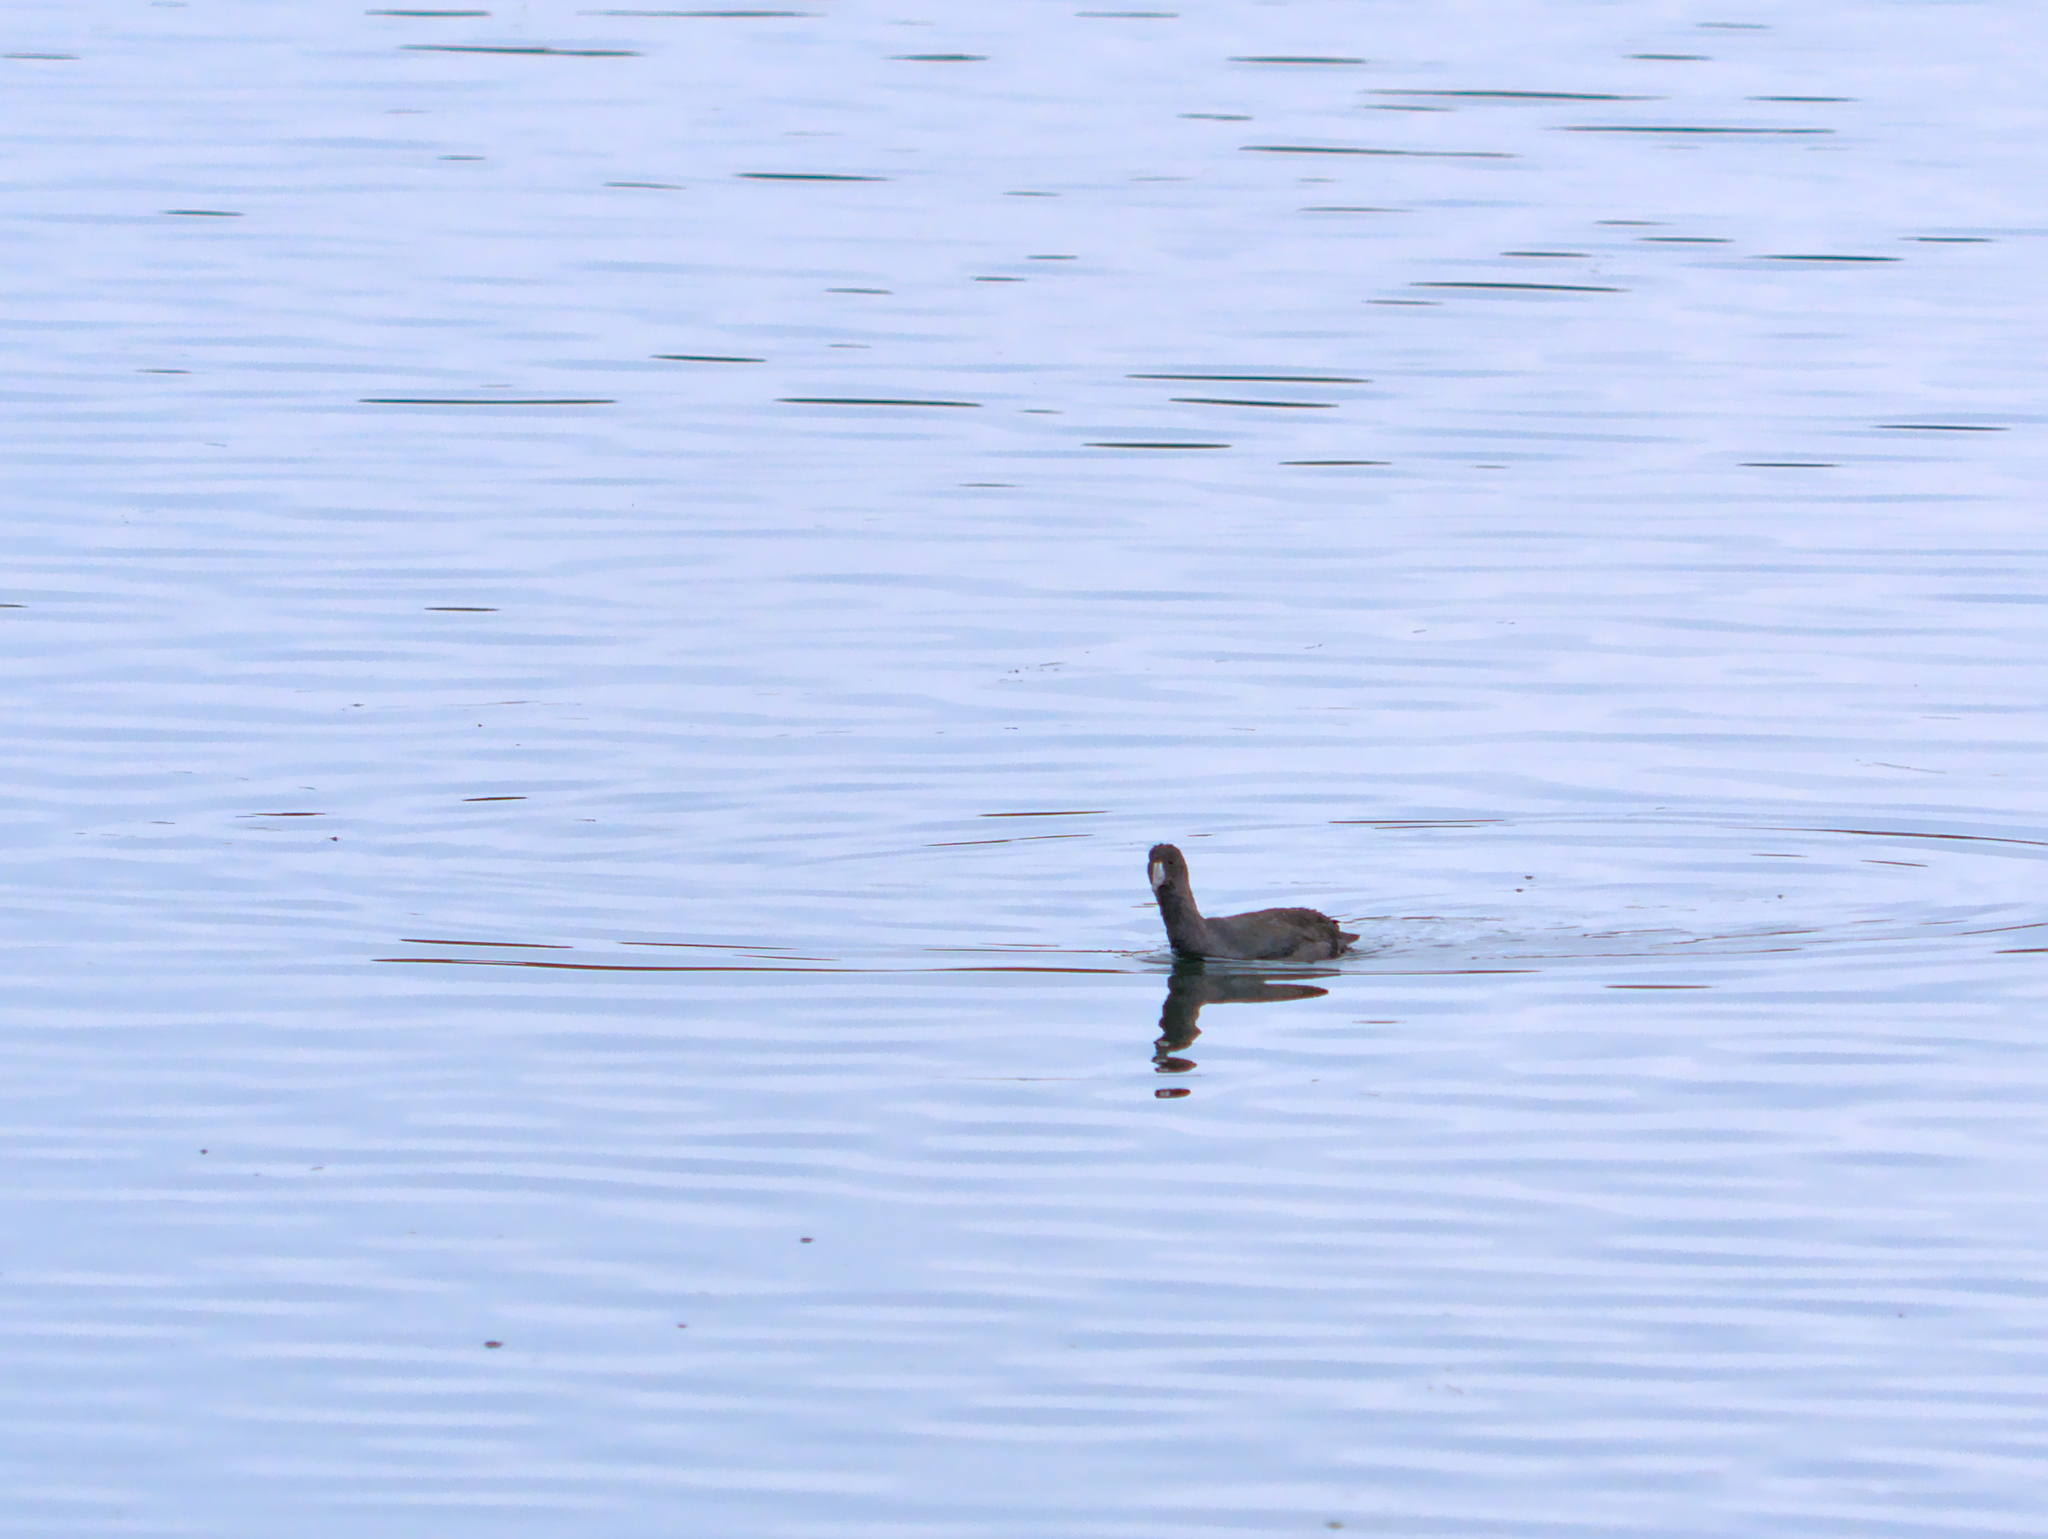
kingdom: Animalia
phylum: Chordata
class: Aves
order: Gruiformes
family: Rallidae
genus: Fulica
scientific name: Fulica americana
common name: American coot
